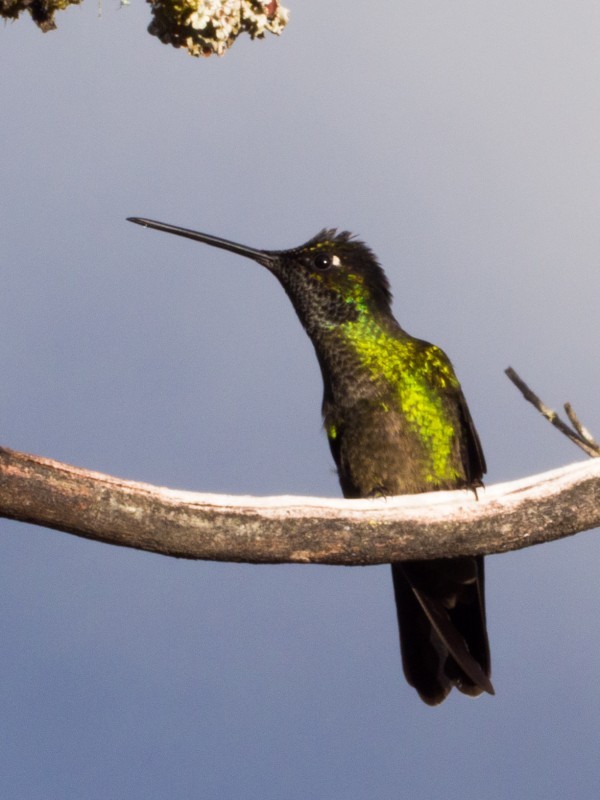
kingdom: Animalia
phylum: Chordata
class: Aves
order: Apodiformes
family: Trochilidae
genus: Eugenes
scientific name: Eugenes spectabilis
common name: Talamanca hummingbird
